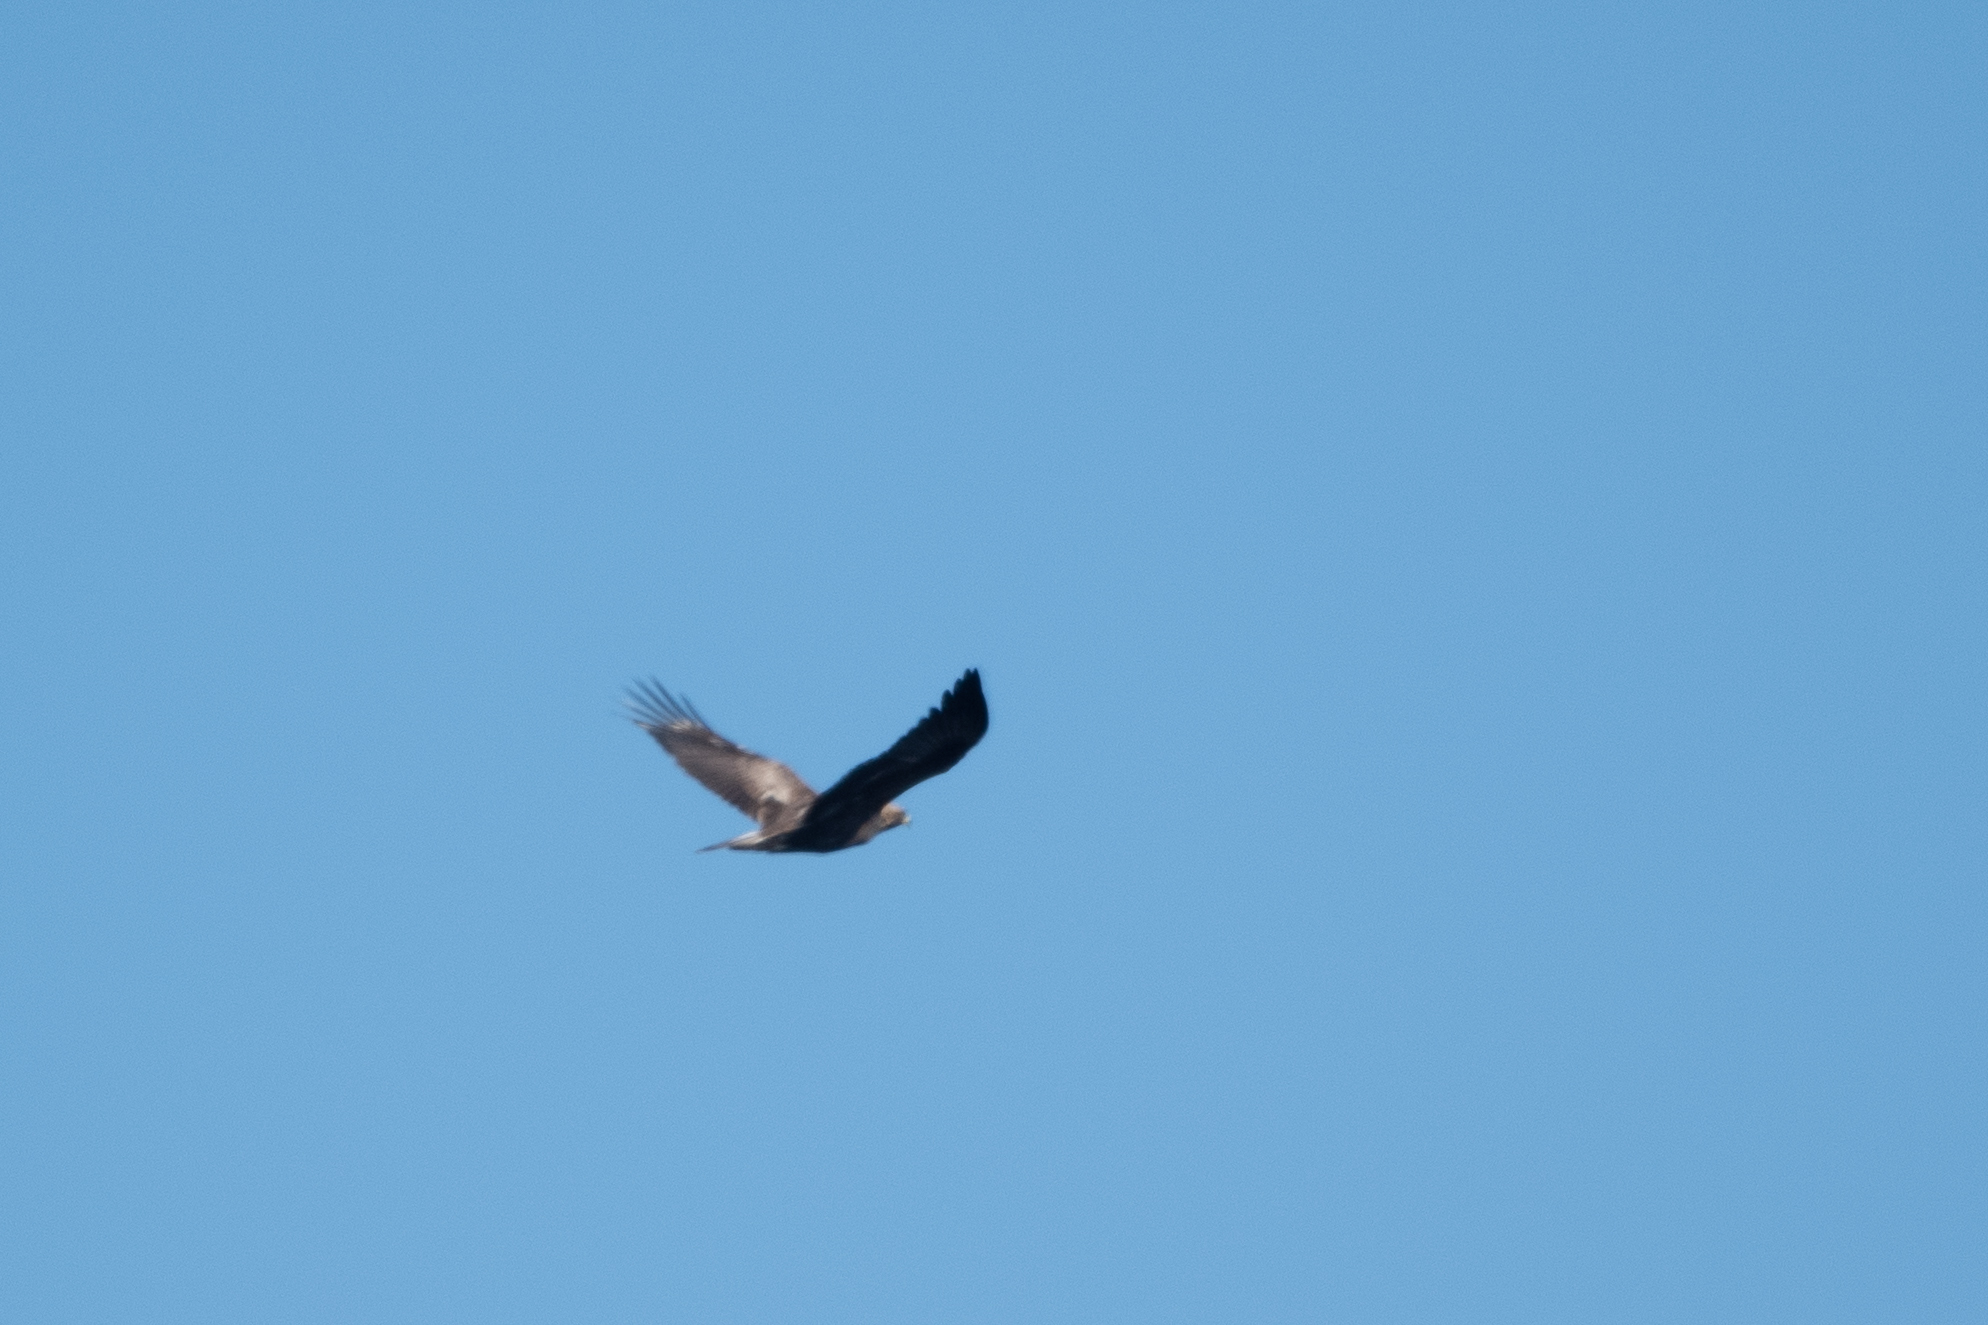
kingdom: Animalia
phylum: Chordata
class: Aves
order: Accipitriformes
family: Accipitridae
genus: Aquila
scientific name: Aquila chrysaetos
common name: Golden eagle
